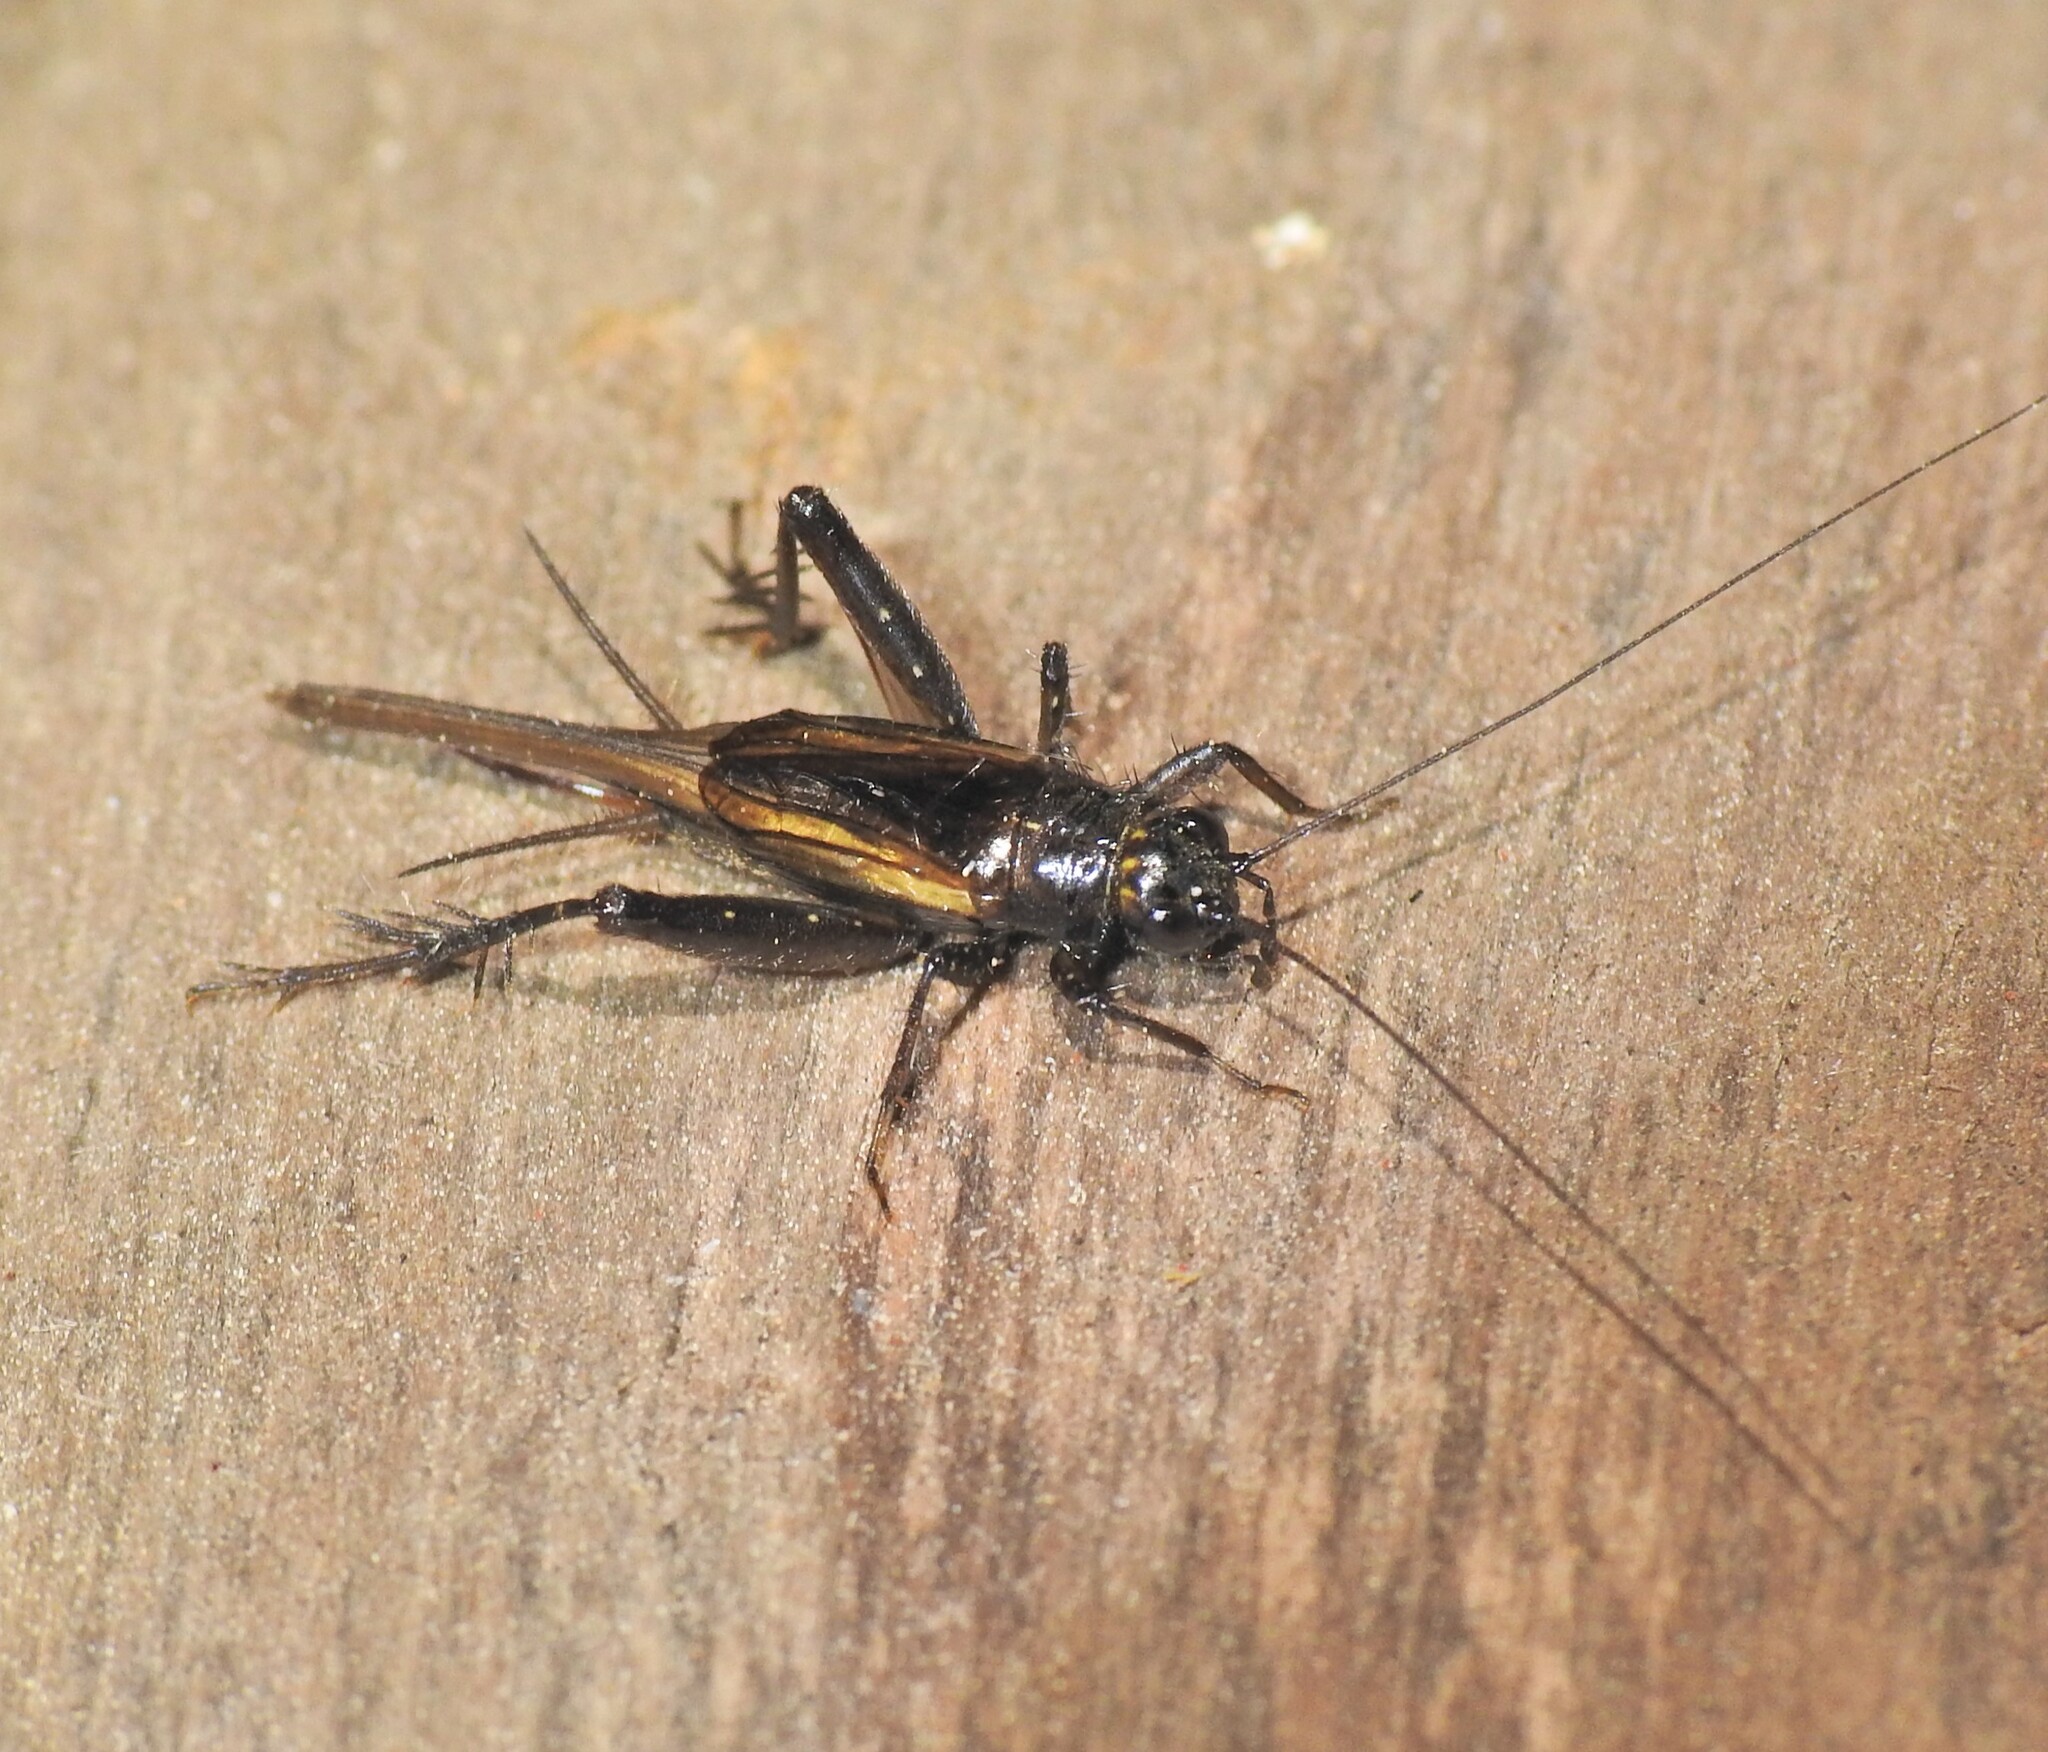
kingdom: Animalia
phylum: Arthropoda
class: Insecta
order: Orthoptera
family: Gryllidae
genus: Teleogryllus
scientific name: Teleogryllus commodus
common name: Black field cricket
